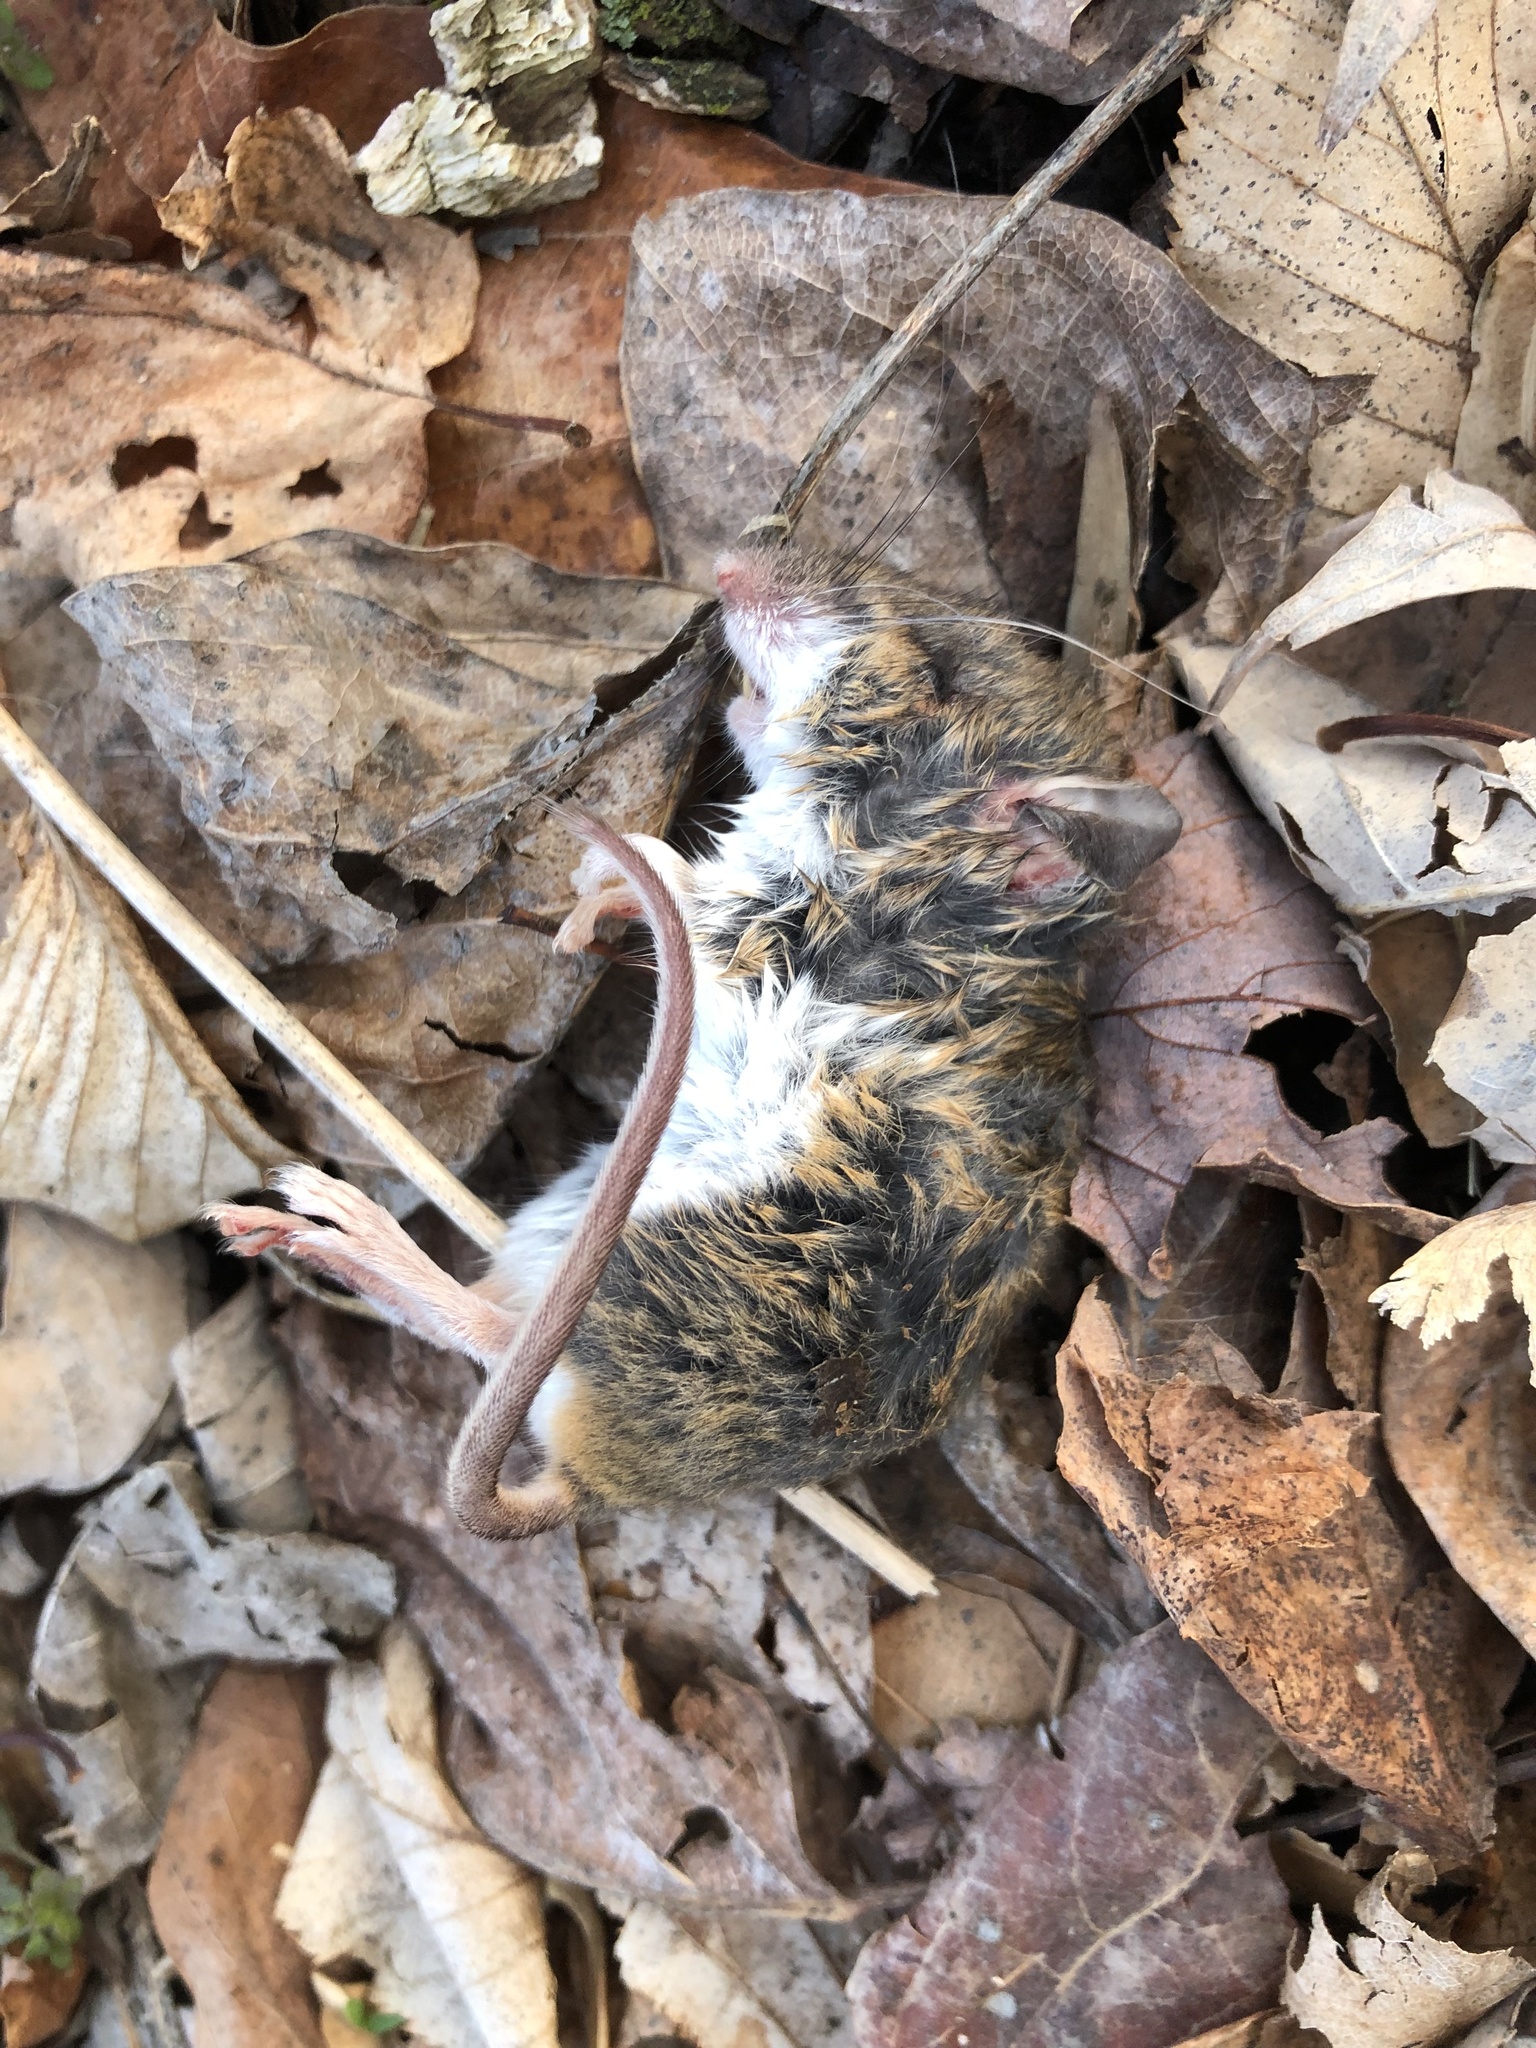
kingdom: Animalia
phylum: Chordata
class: Mammalia
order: Rodentia
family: Cricetidae
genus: Peromyscus
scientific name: Peromyscus leucopus
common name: White-footed deermouse
